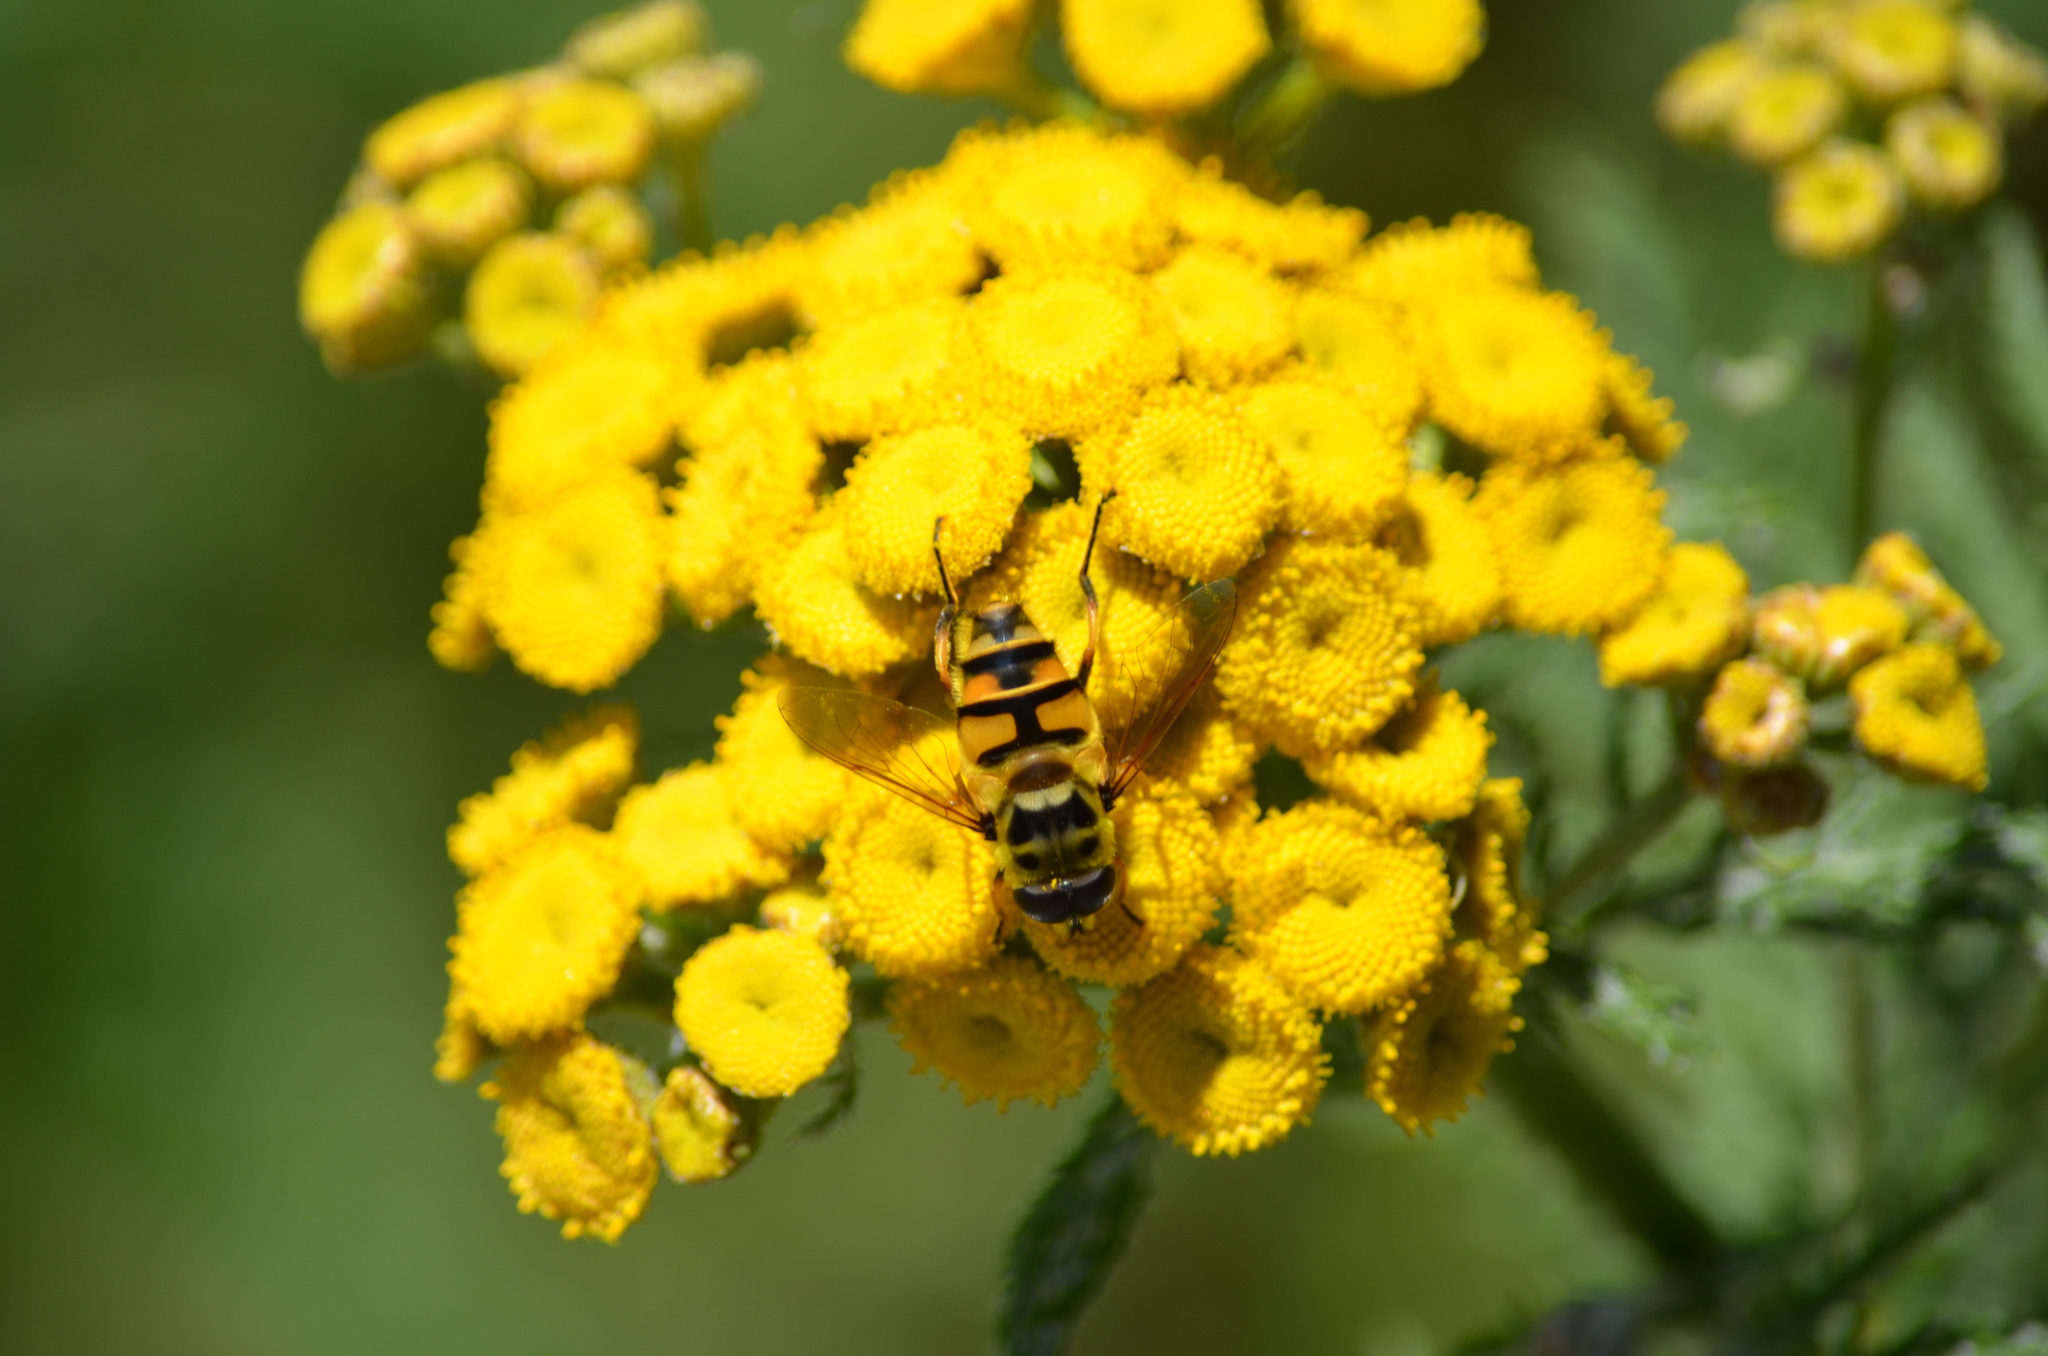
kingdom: Animalia
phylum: Arthropoda
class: Insecta
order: Diptera
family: Syrphidae
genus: Myathropa
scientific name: Myathropa florea
